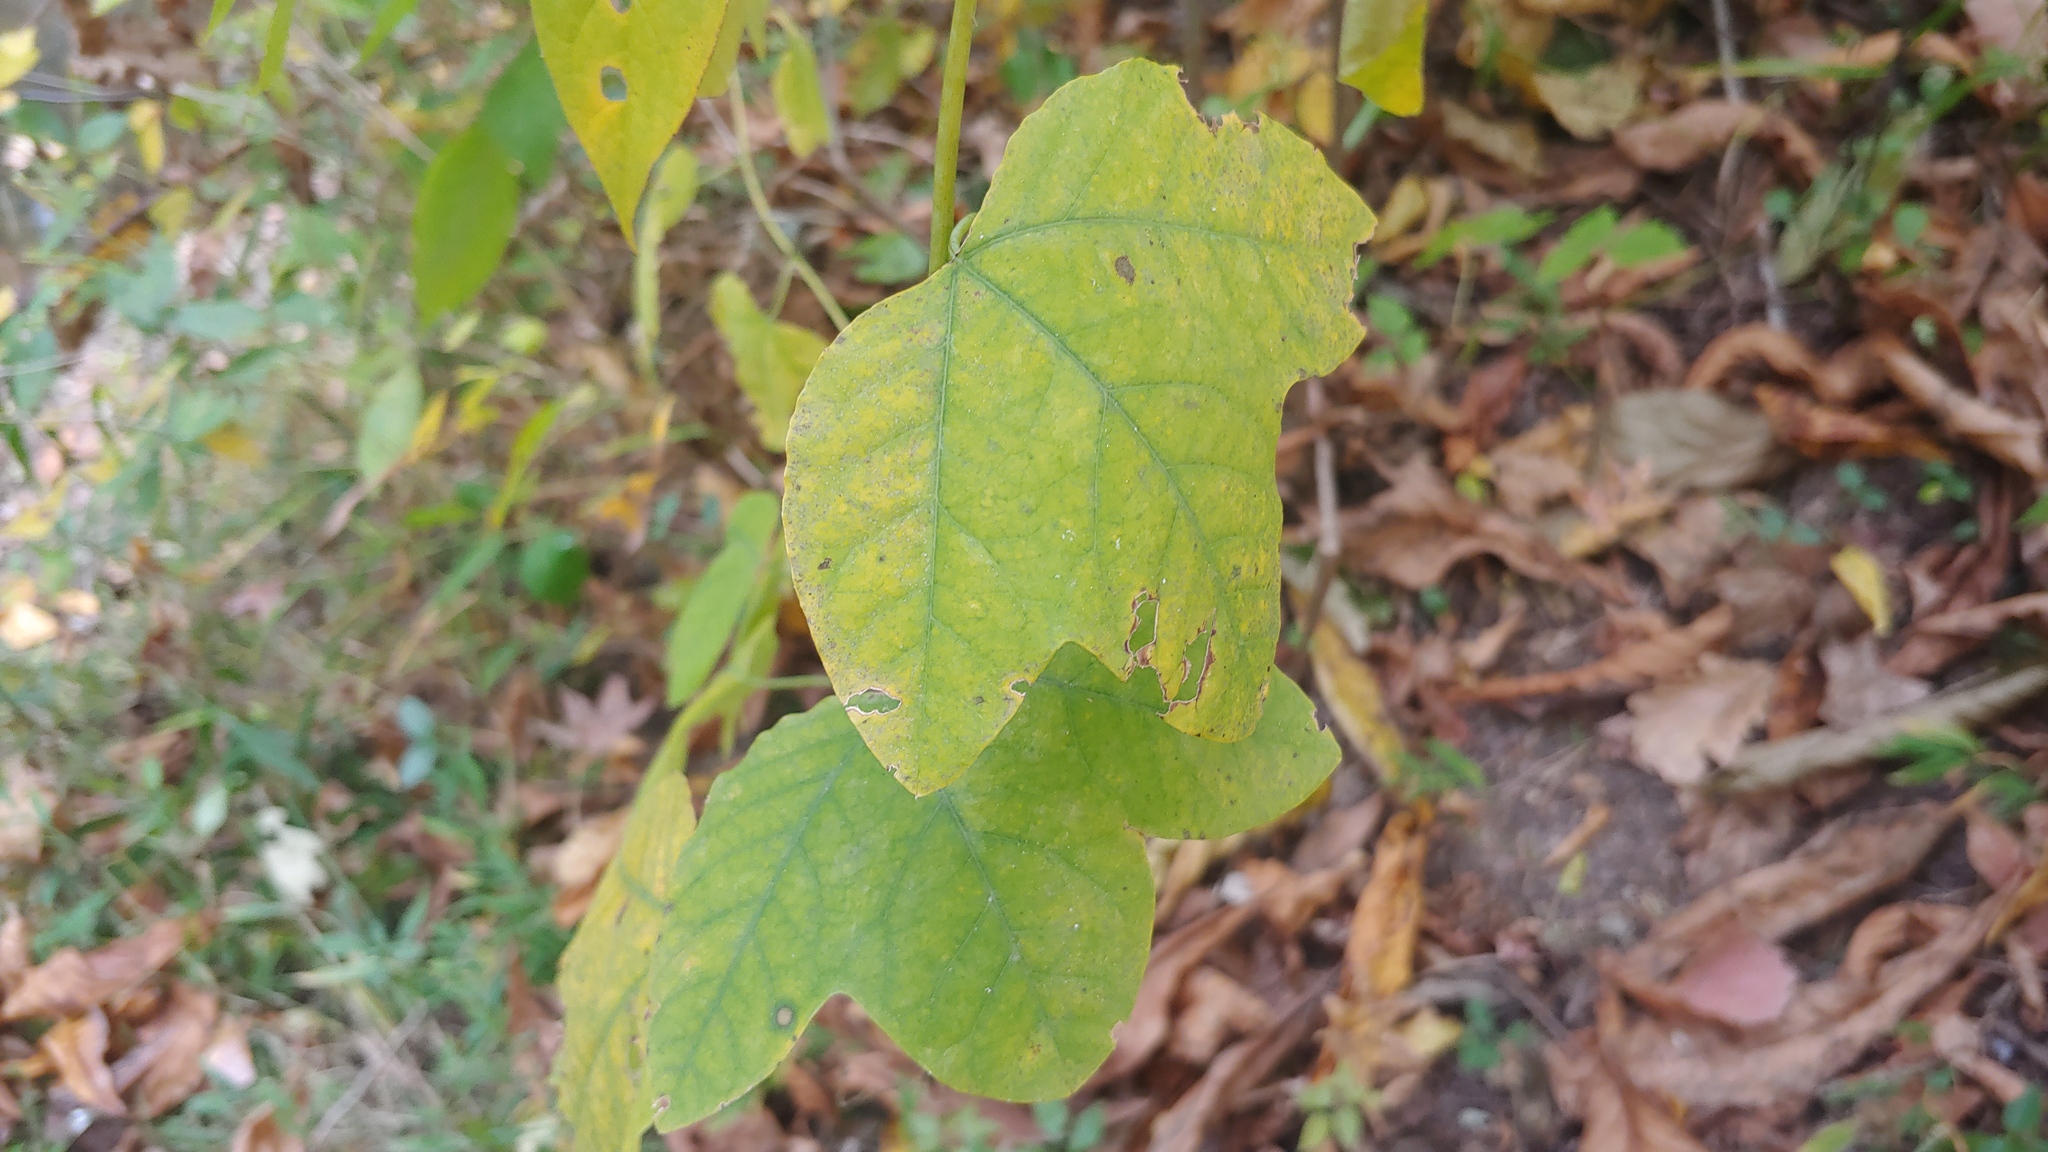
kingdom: Plantae
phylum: Tracheophyta
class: Magnoliopsida
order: Malpighiales
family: Passifloraceae
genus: Passiflora
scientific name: Passiflora lutea
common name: Yellow passionflower
